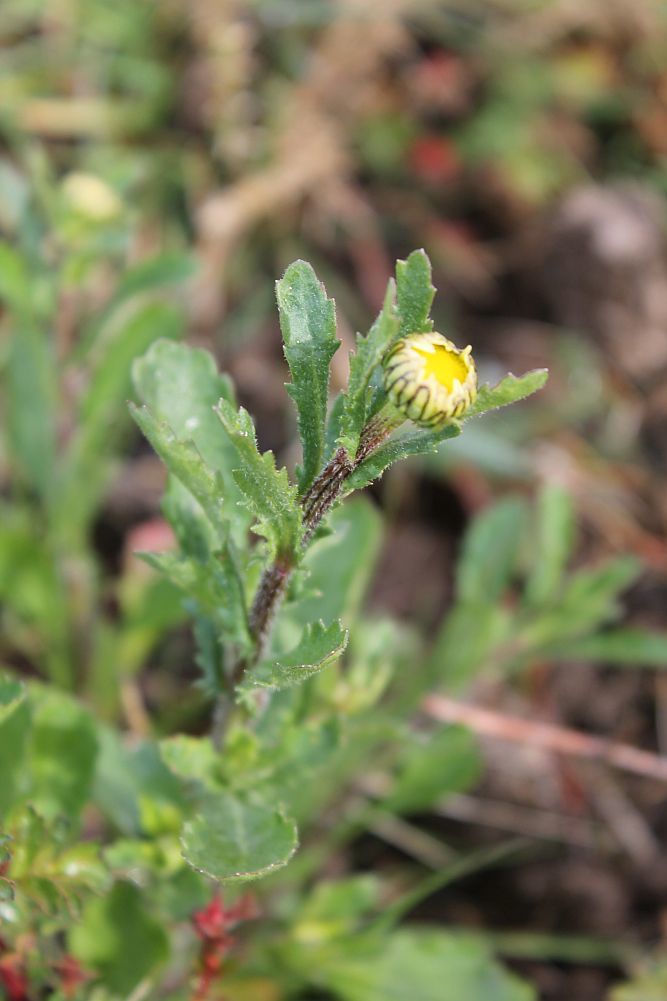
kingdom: Plantae
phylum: Tracheophyta
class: Magnoliopsida
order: Asterales
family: Asteraceae
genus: Leucanthemum
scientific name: Leucanthemum vulgare
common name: Oxeye daisy
